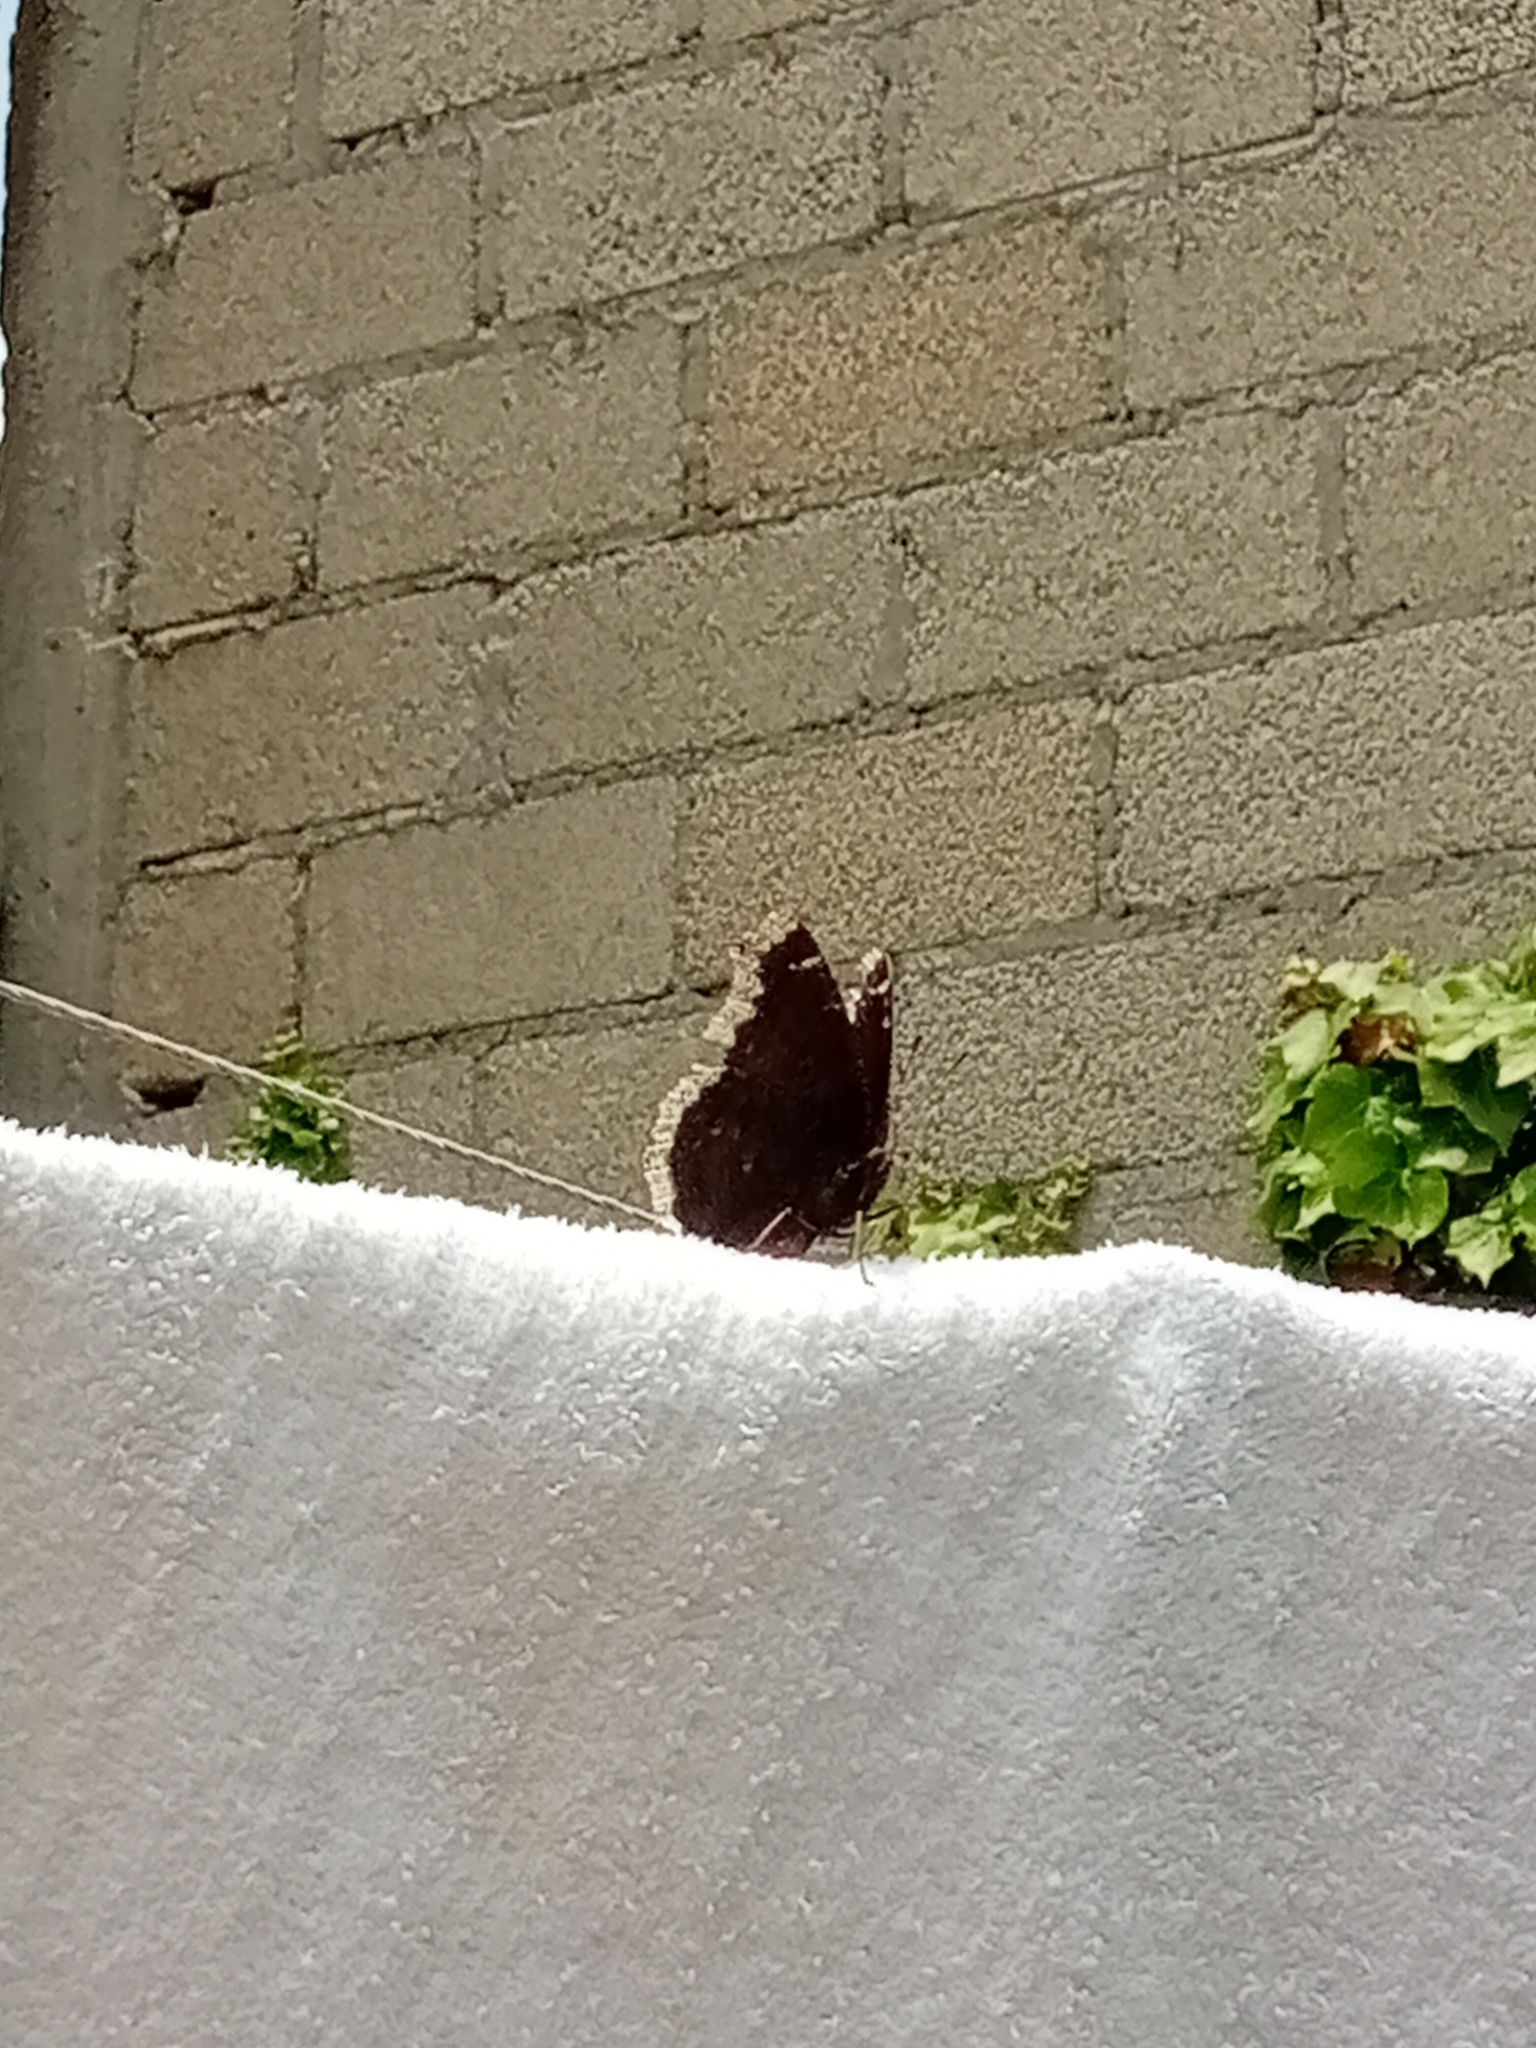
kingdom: Animalia
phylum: Arthropoda
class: Insecta
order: Lepidoptera
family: Nymphalidae
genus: Nymphalis
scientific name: Nymphalis antiopa
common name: Camberwell beauty
